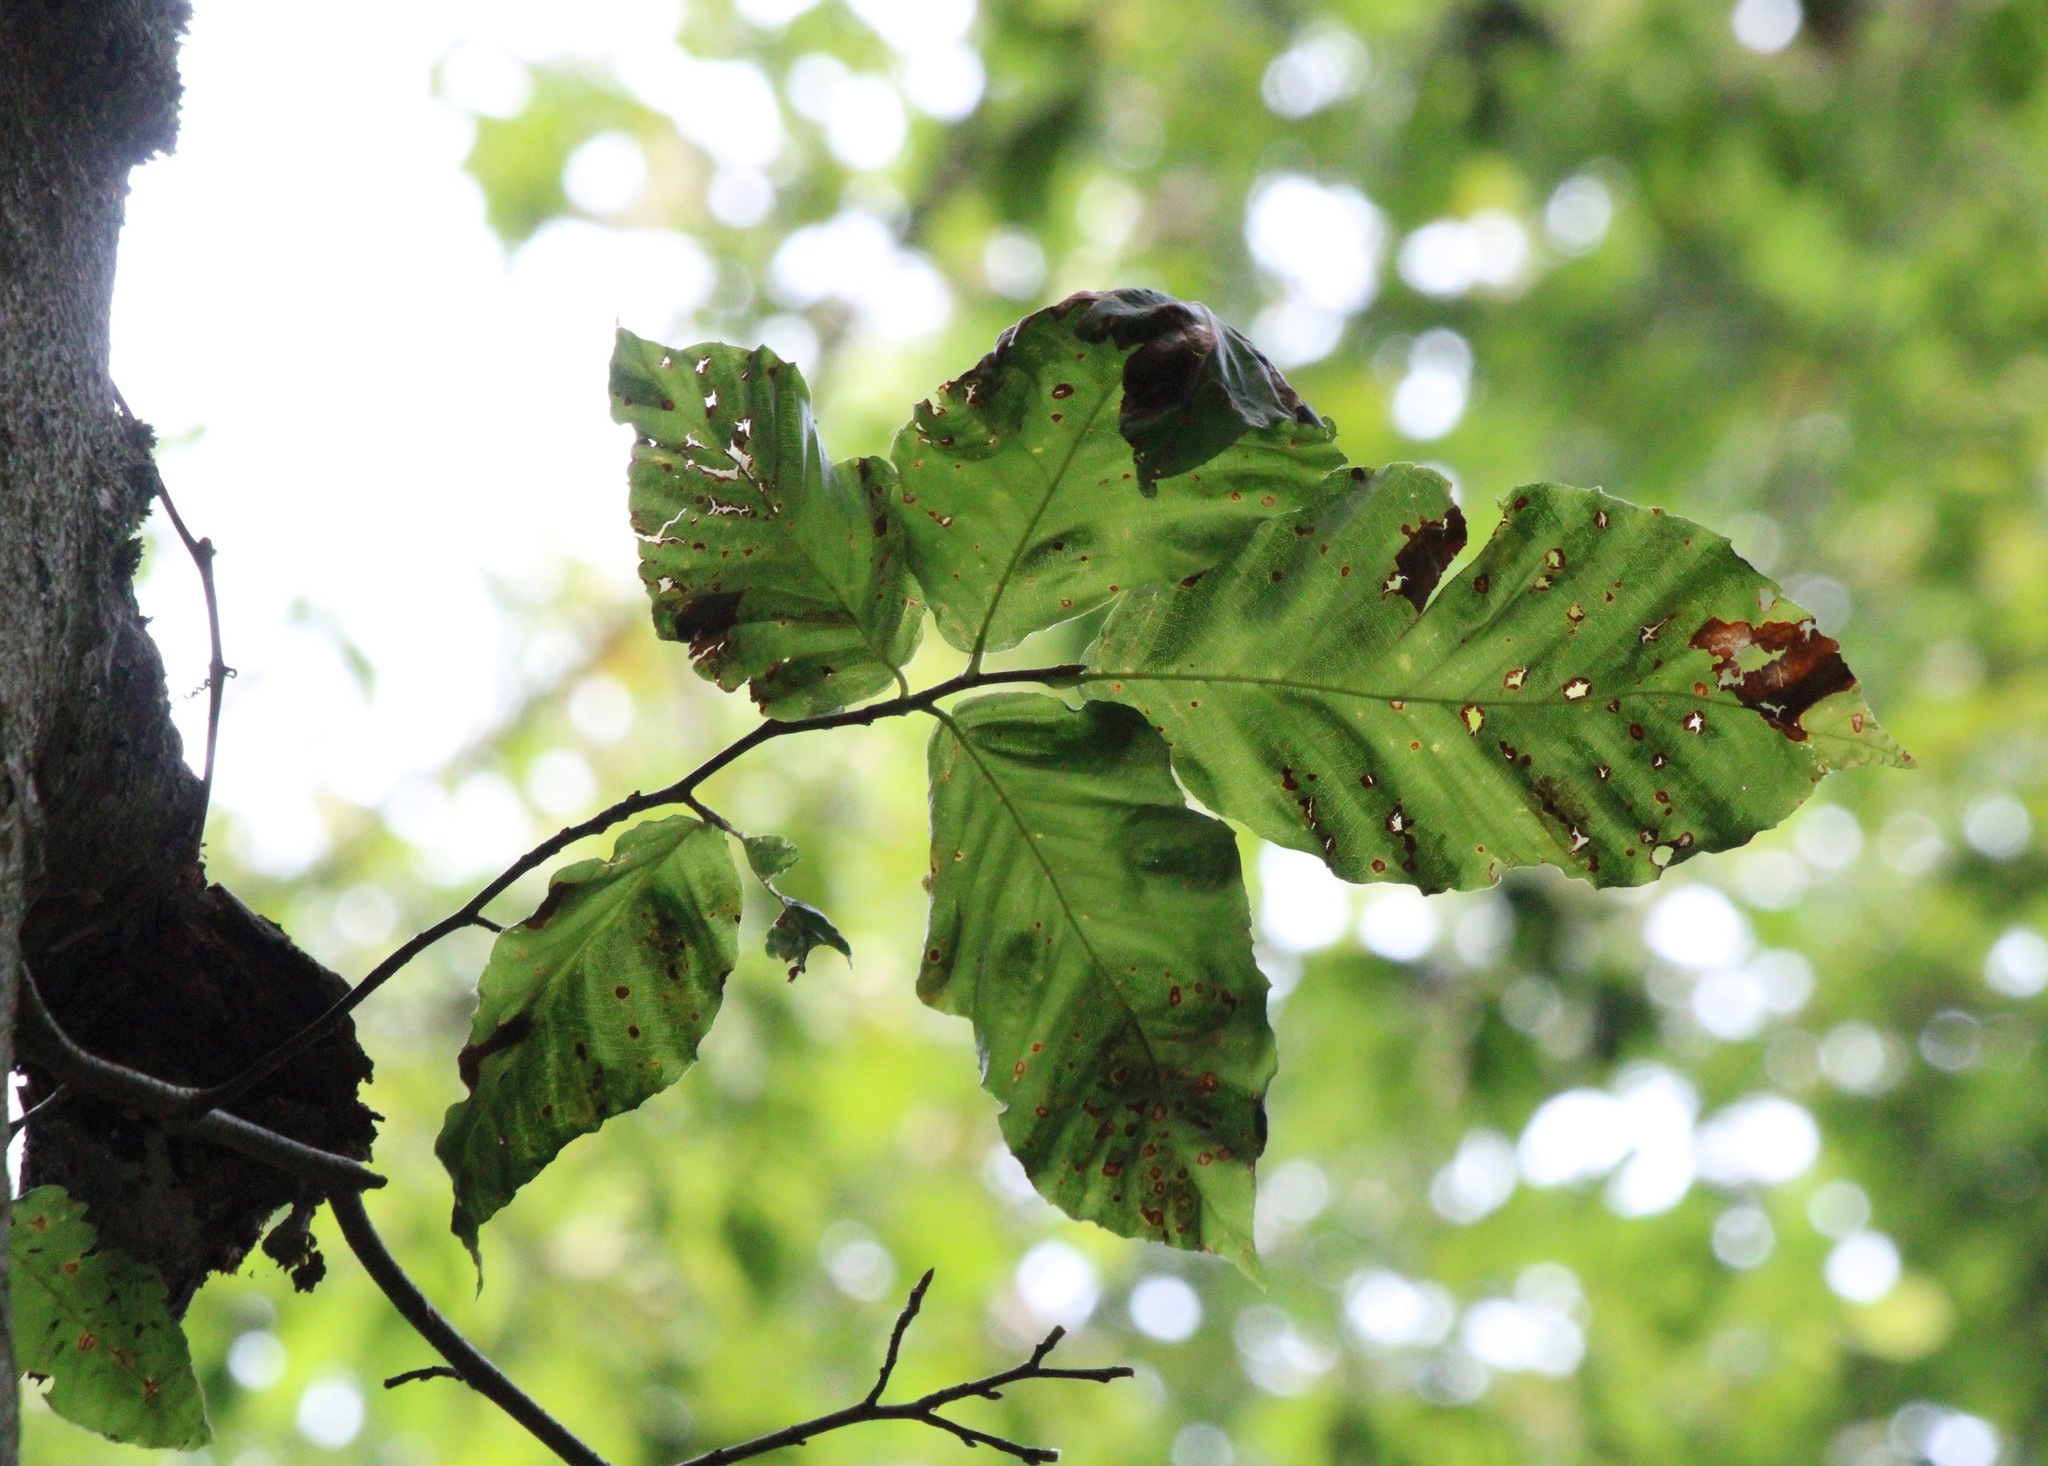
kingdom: Animalia
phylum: Nematoda
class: Chromadorea
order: Rhabditida
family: Anguinidae
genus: Litylenchus
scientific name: Litylenchus crenatae
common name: Beech leaf disease
